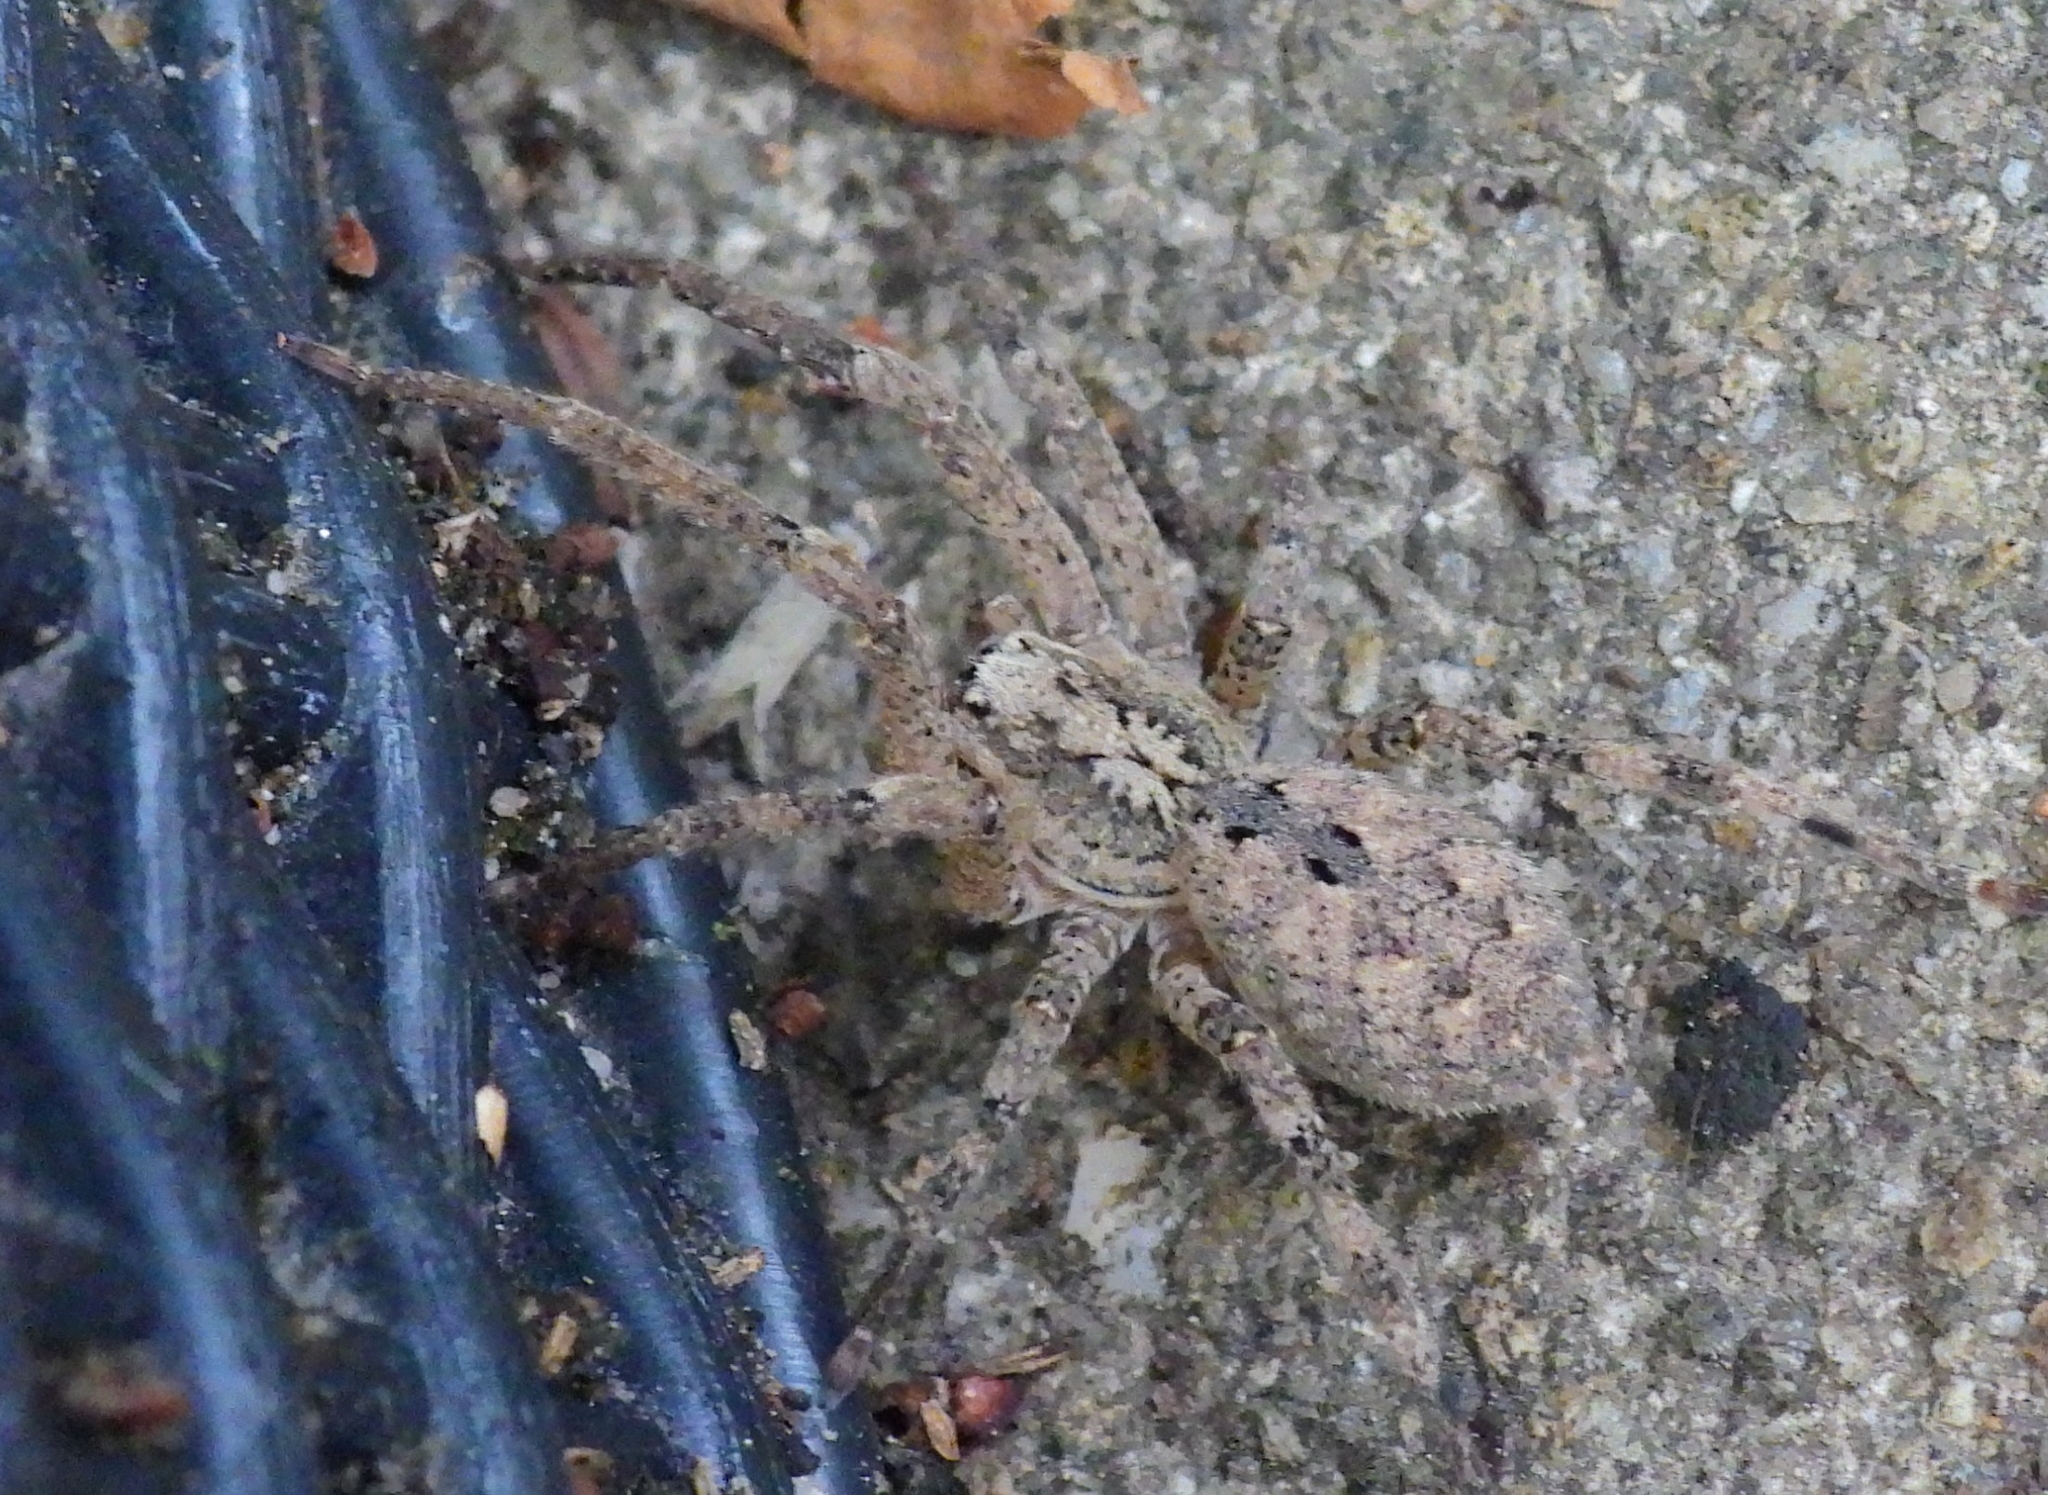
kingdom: Animalia
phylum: Arthropoda
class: Arachnida
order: Araneae
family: Zoropsidae
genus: Zoropsis
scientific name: Zoropsis spinimana
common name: Zoropsid spider
